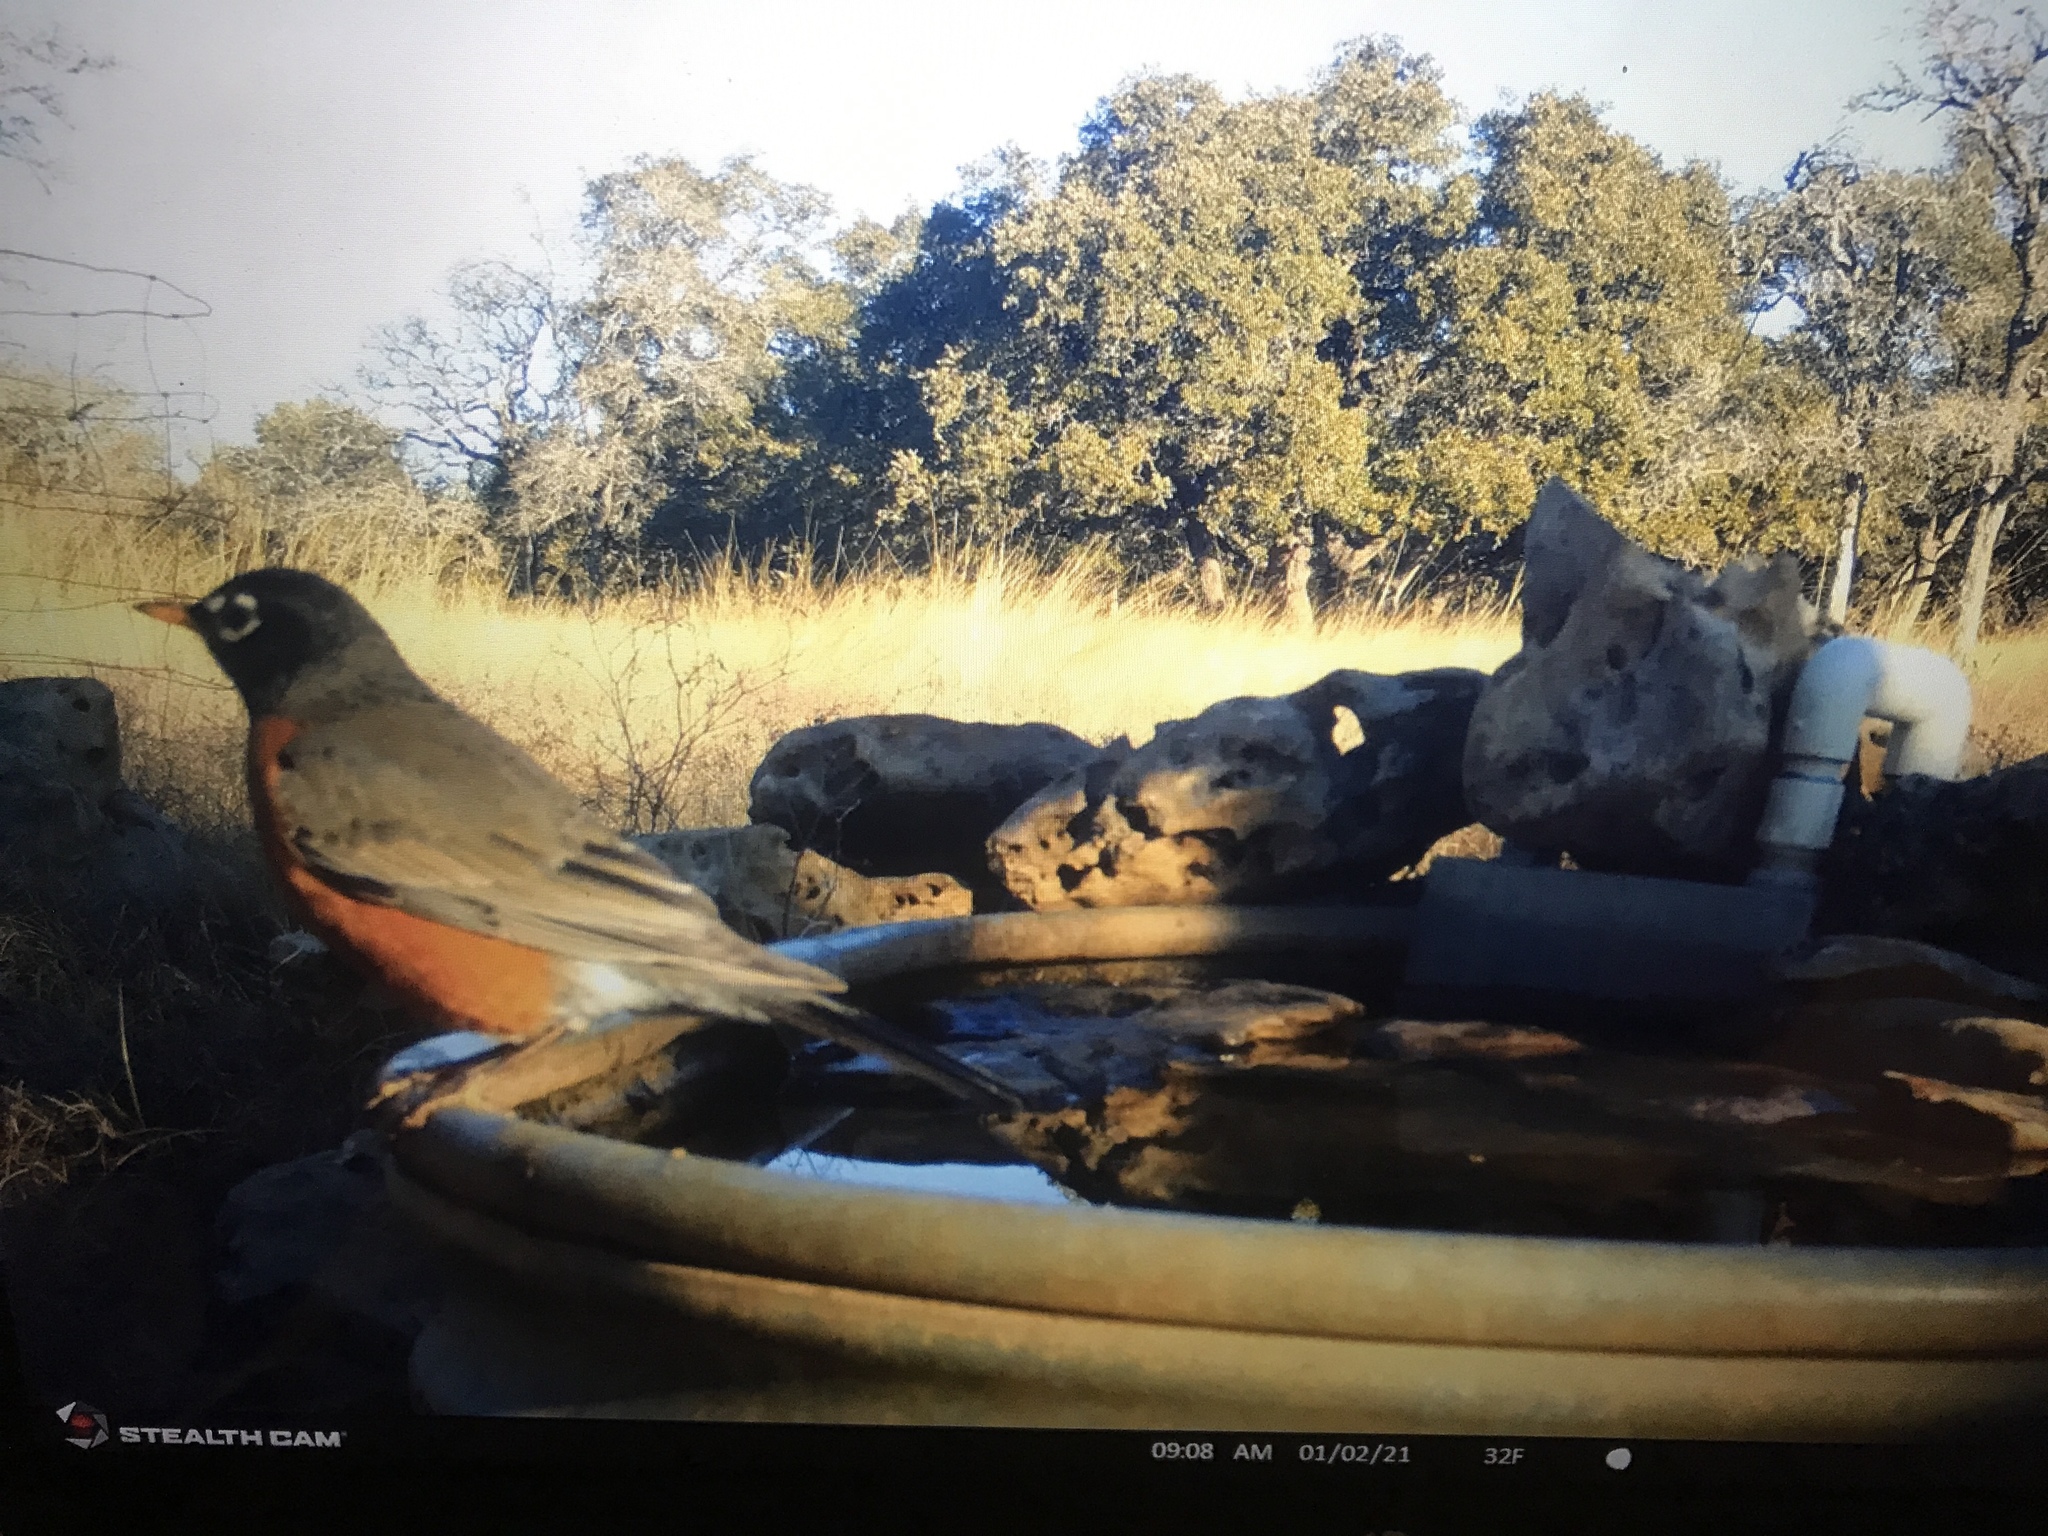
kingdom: Animalia
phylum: Chordata
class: Aves
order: Passeriformes
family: Turdidae
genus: Turdus
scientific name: Turdus migratorius
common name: American robin
